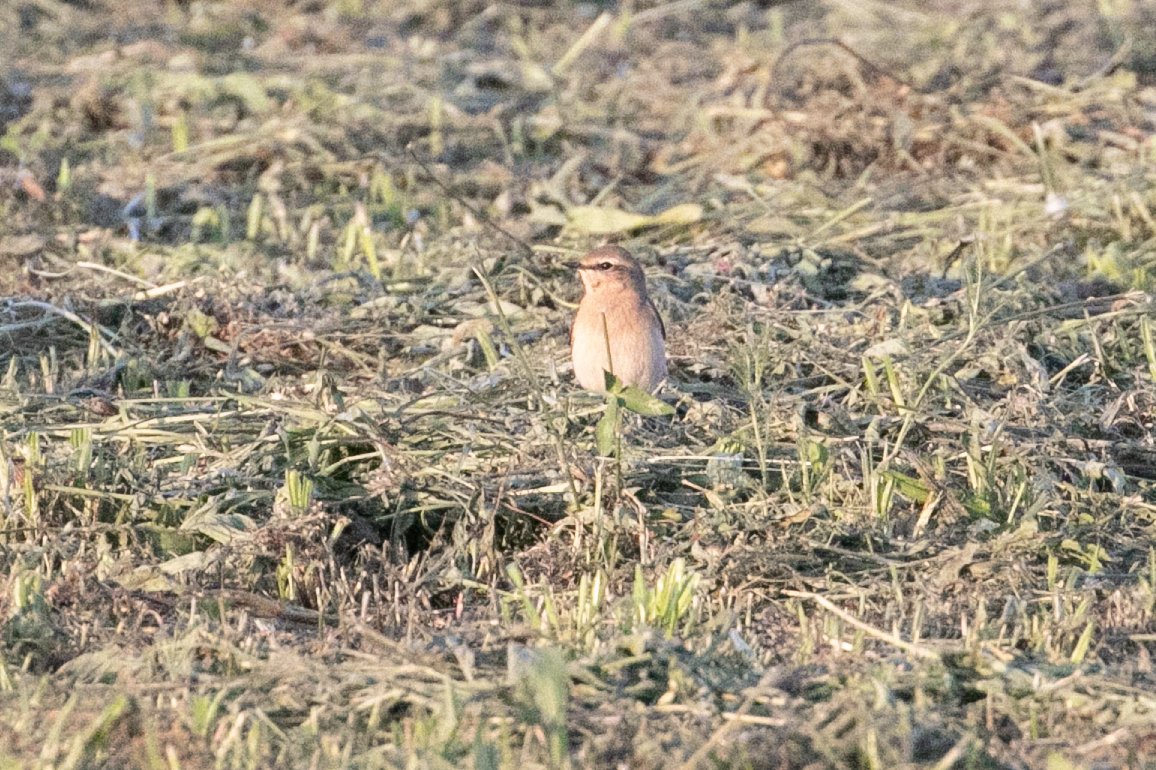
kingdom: Animalia
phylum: Chordata
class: Aves
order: Passeriformes
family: Muscicapidae
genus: Oenanthe
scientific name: Oenanthe oenanthe
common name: Northern wheatear
